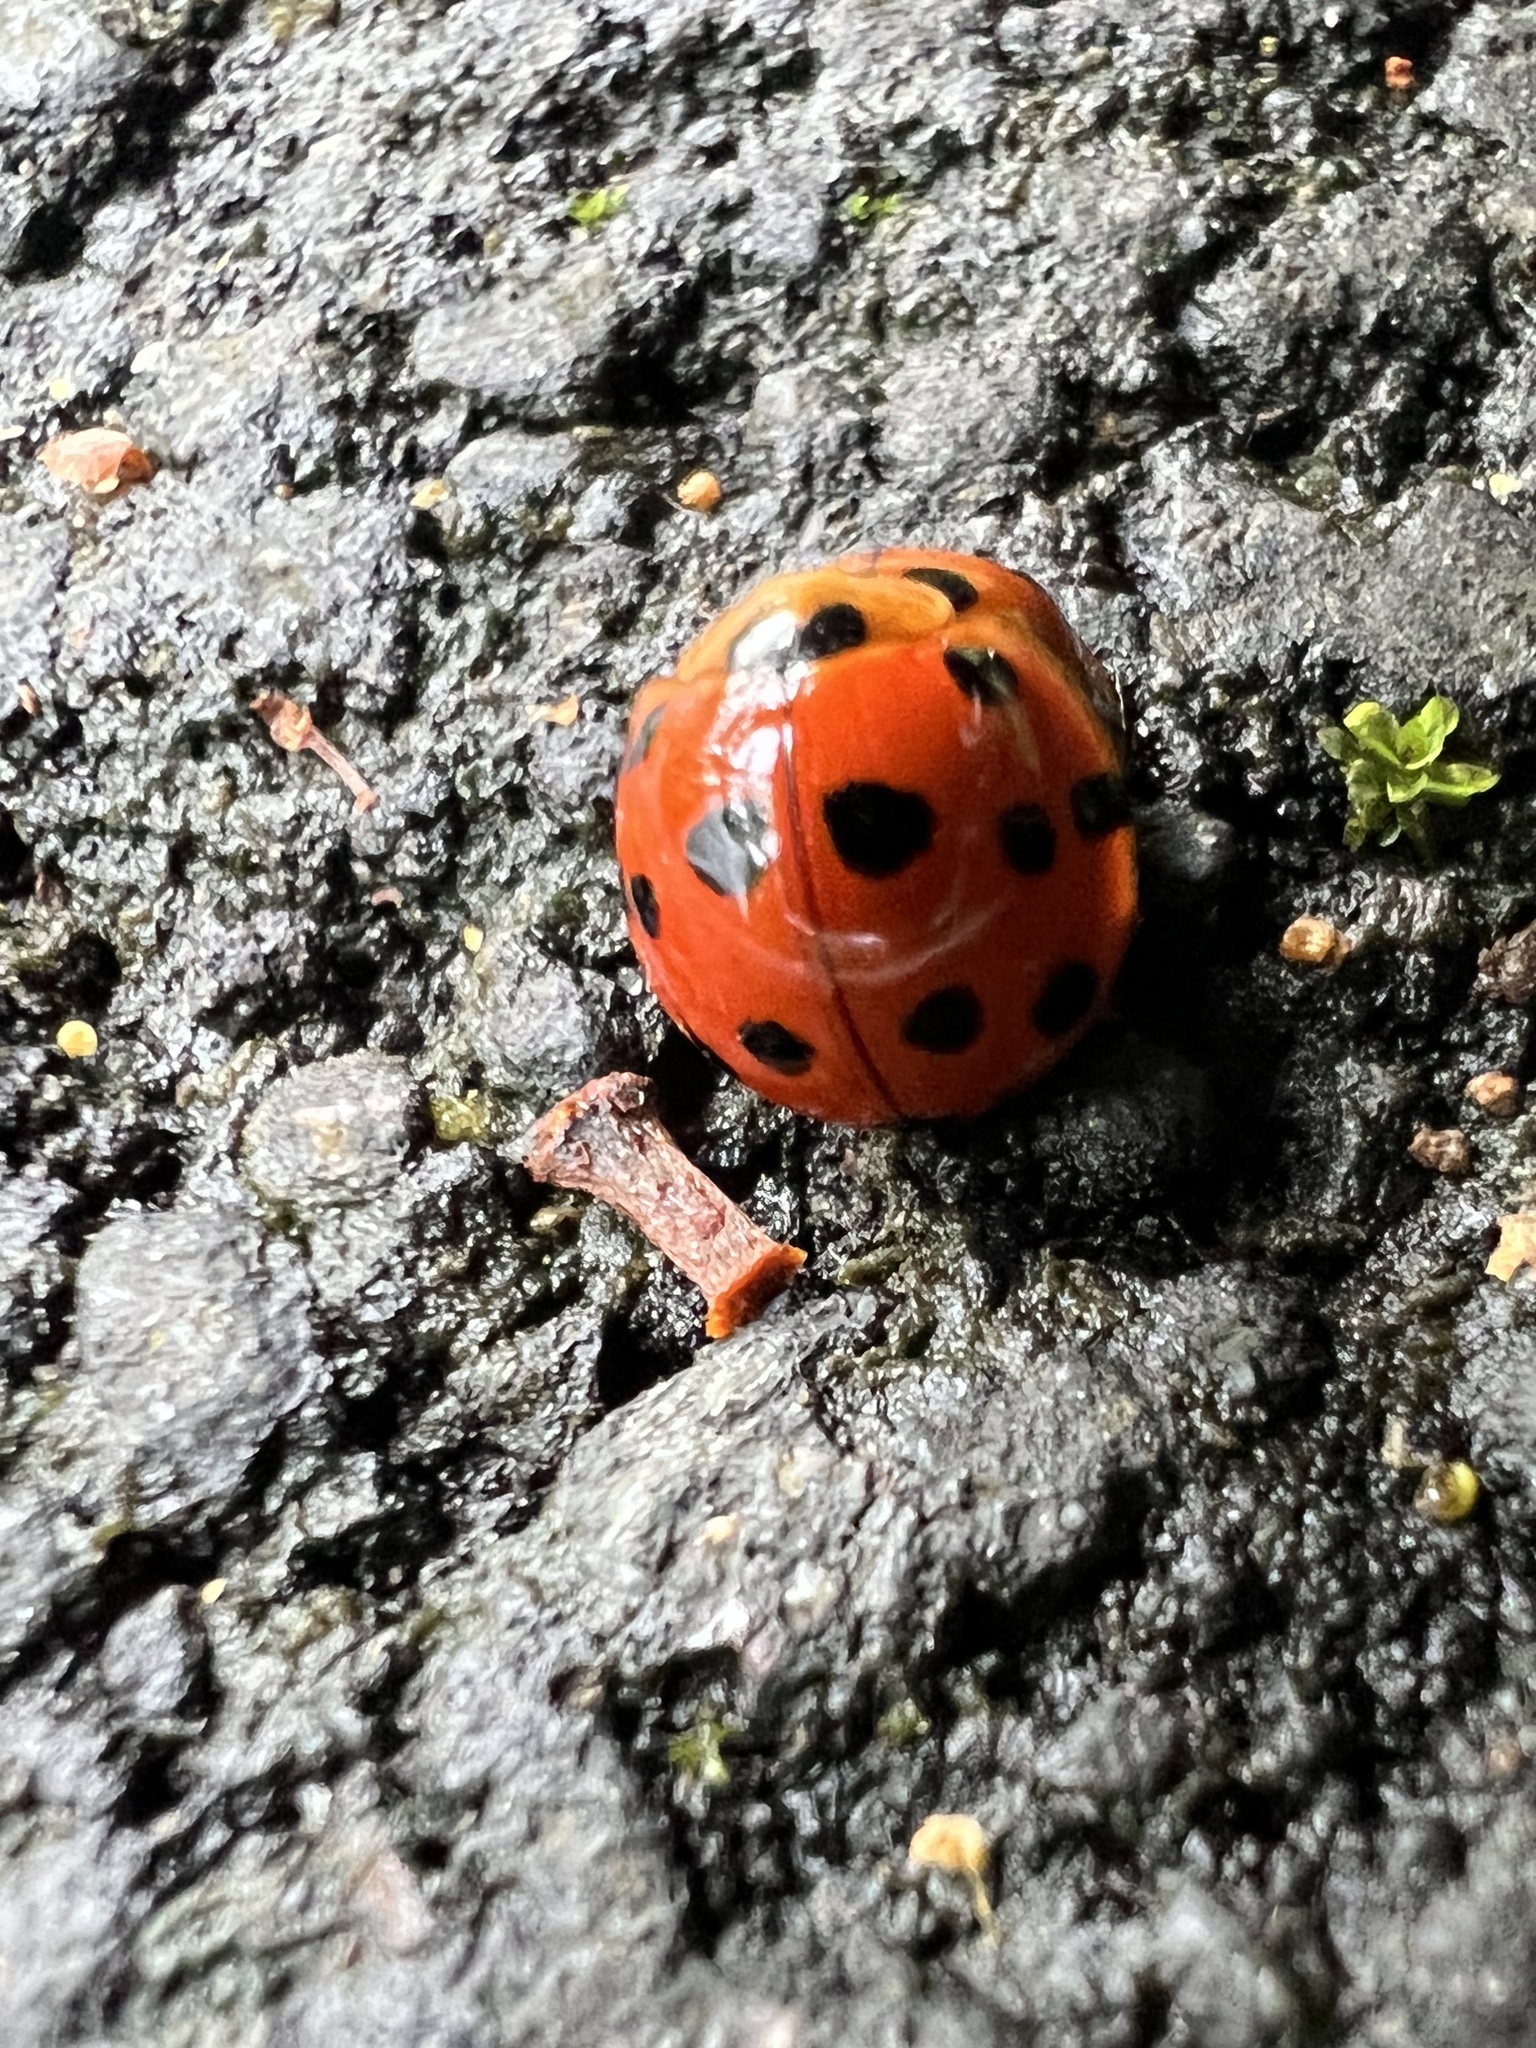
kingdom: Animalia
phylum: Arthropoda
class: Insecta
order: Coleoptera
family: Coccinellidae
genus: Harmonia
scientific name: Harmonia dimidiata
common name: Ladybird beetle
